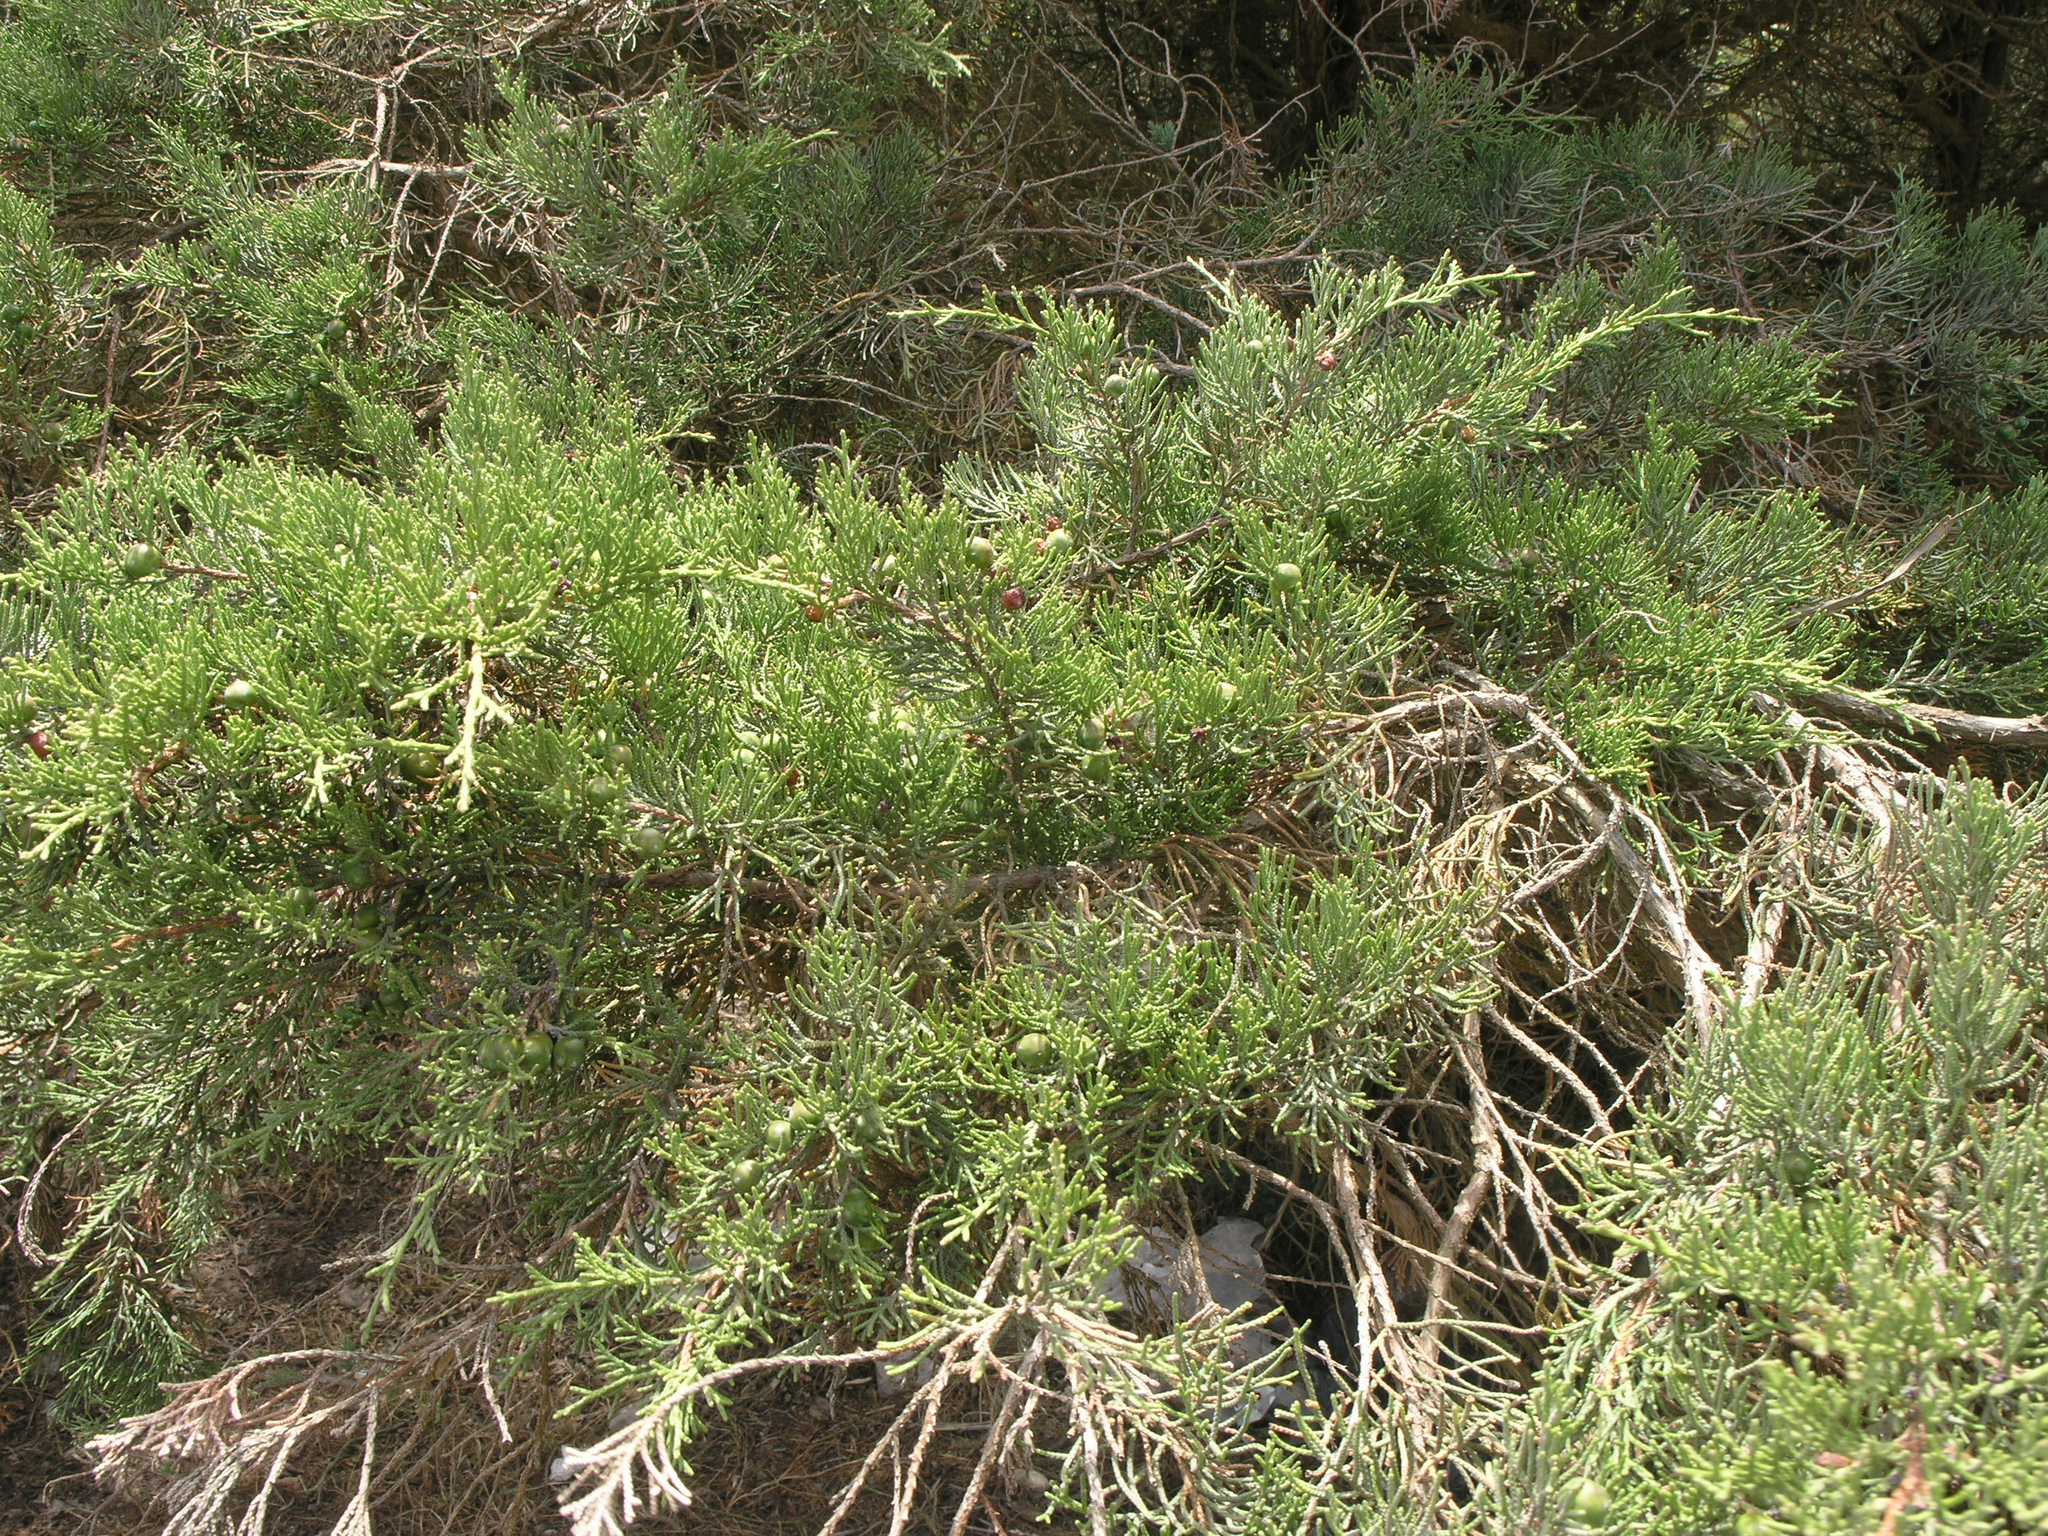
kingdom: Plantae
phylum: Tracheophyta
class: Pinopsida
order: Pinales
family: Cupressaceae
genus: Juniperus
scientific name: Juniperus phoenicea
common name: Phoenician juniper
